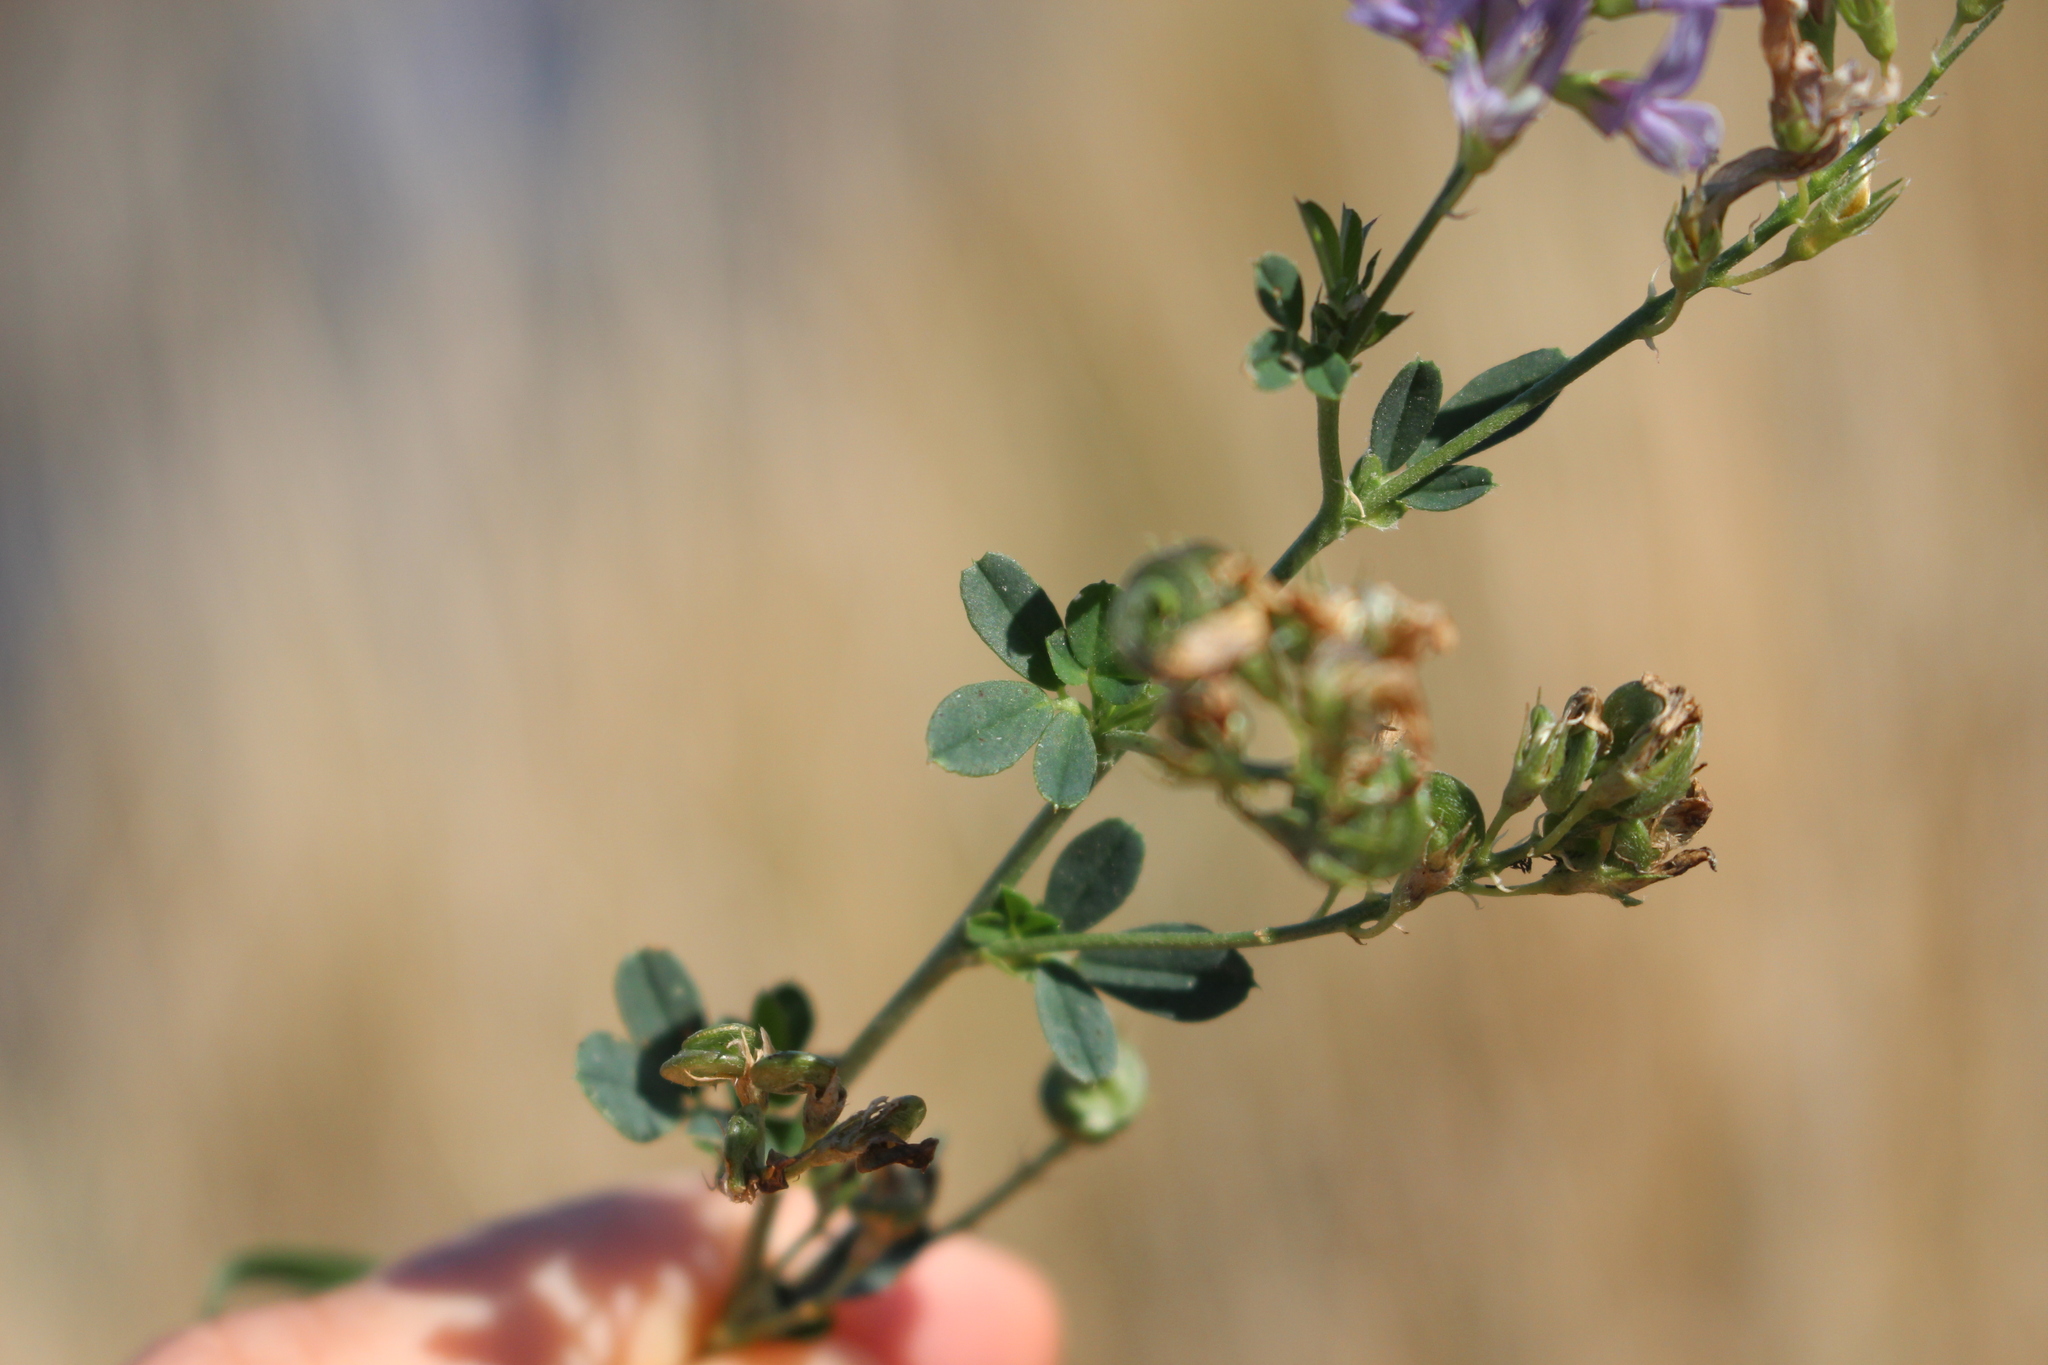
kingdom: Plantae
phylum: Tracheophyta
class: Magnoliopsida
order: Fabales
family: Fabaceae
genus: Medicago
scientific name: Medicago sativa
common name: Alfalfa
